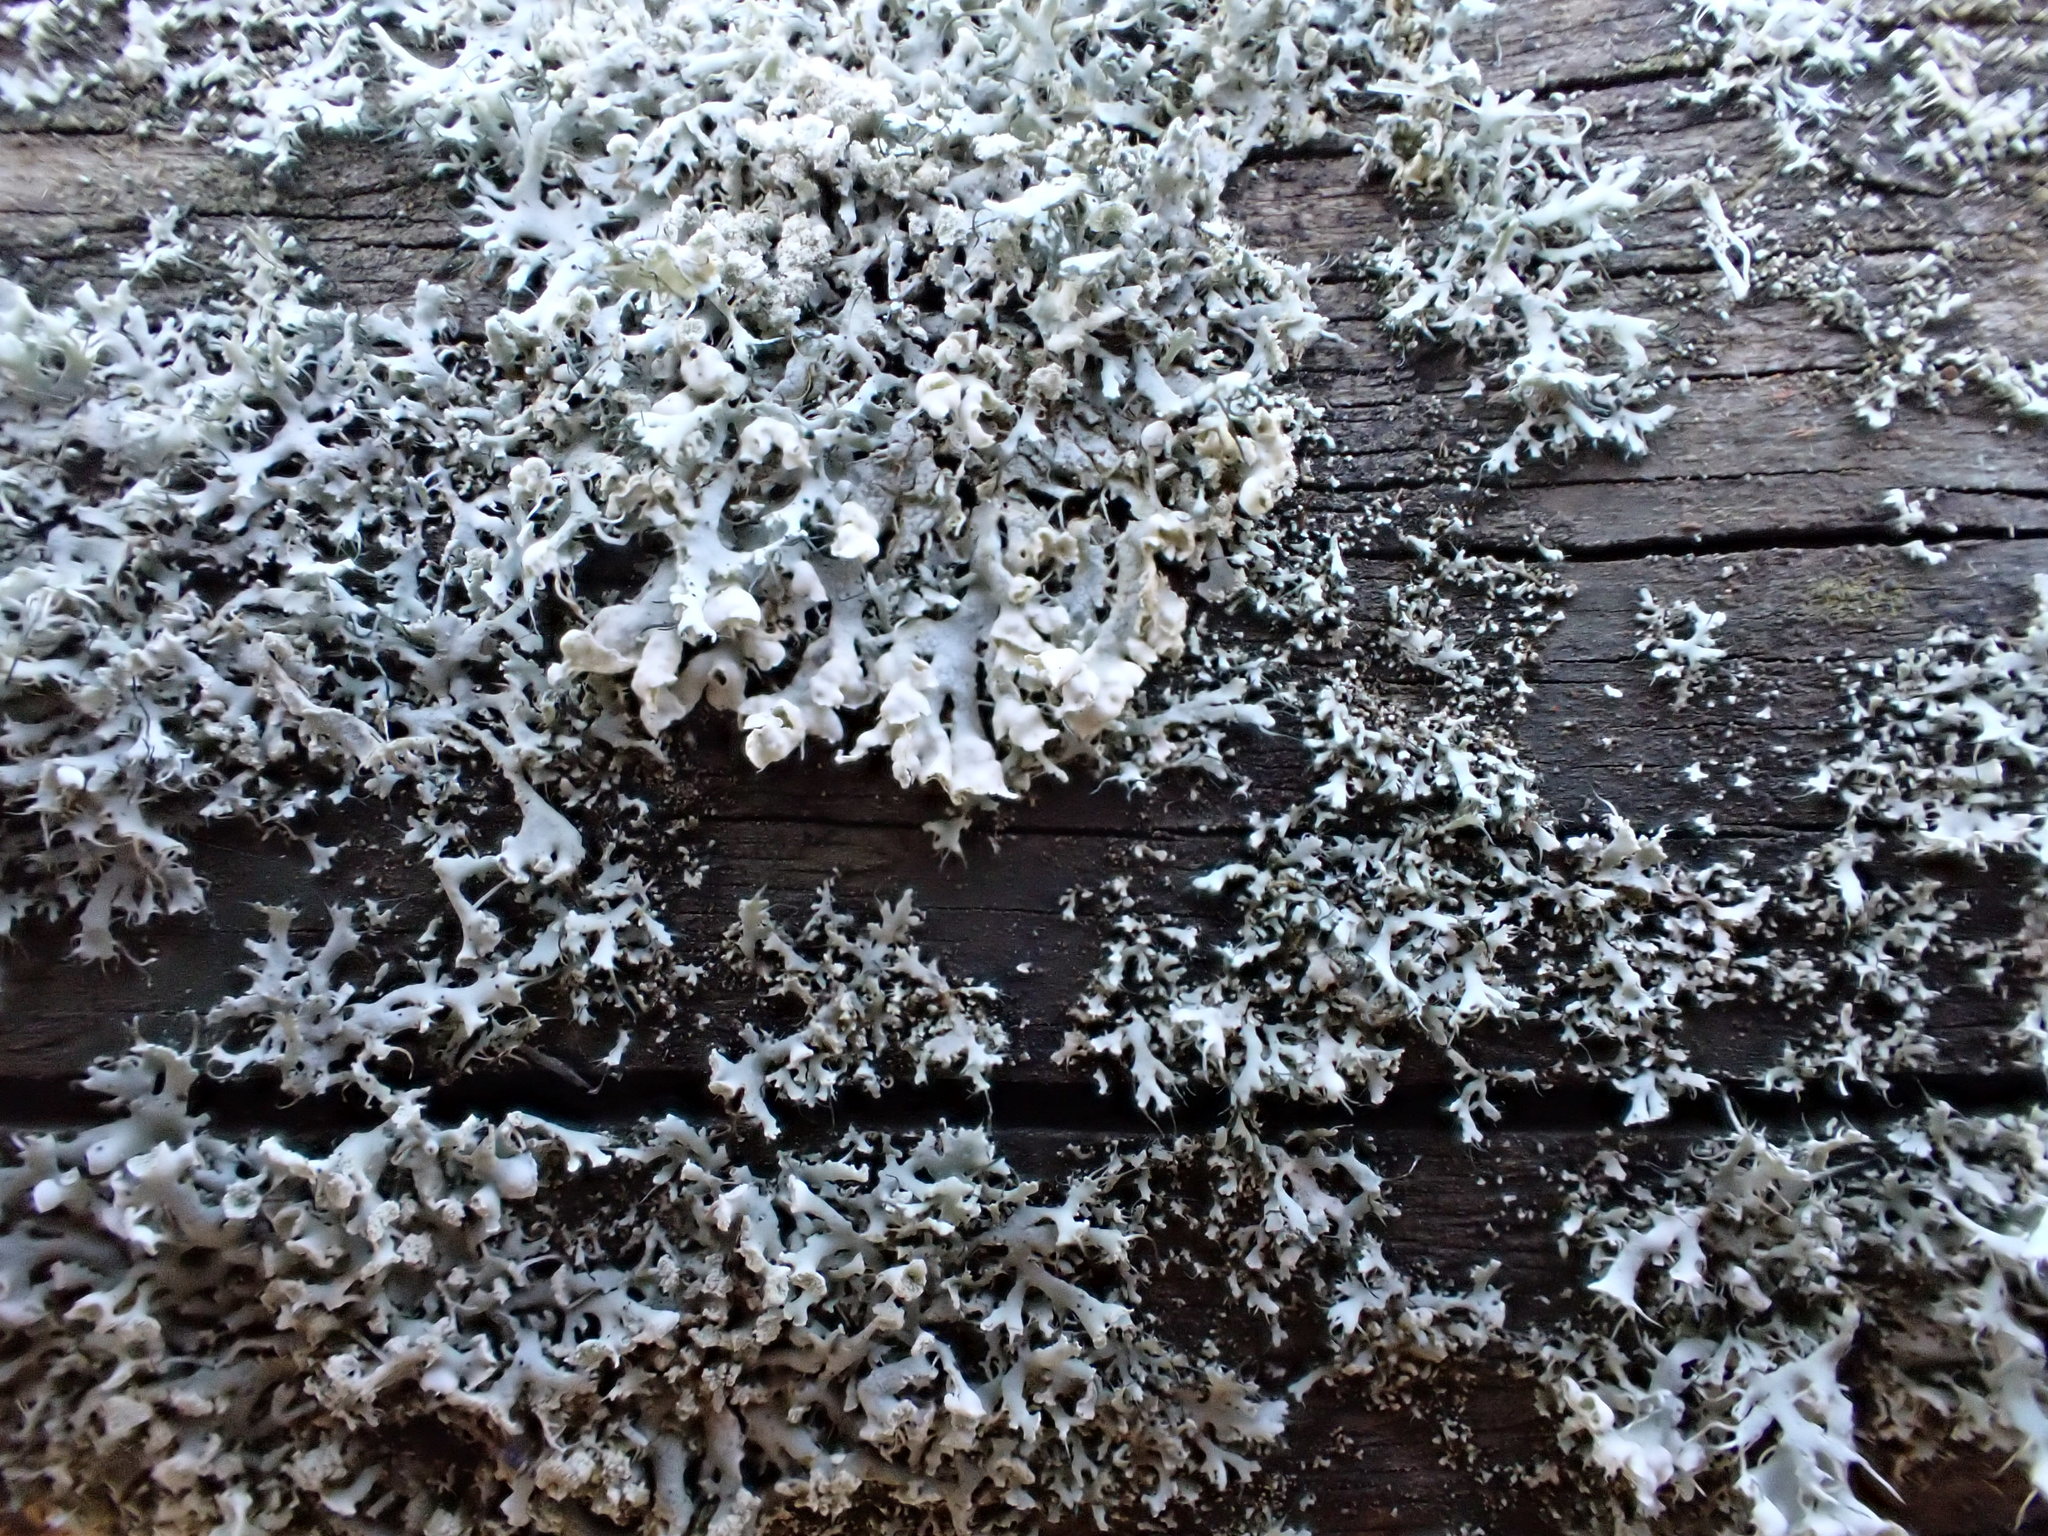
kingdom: Fungi
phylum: Ascomycota
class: Lecanoromycetes
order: Caliciales
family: Physciaceae
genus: Physcia
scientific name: Physcia adscendens
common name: Hooded rosette lichen
